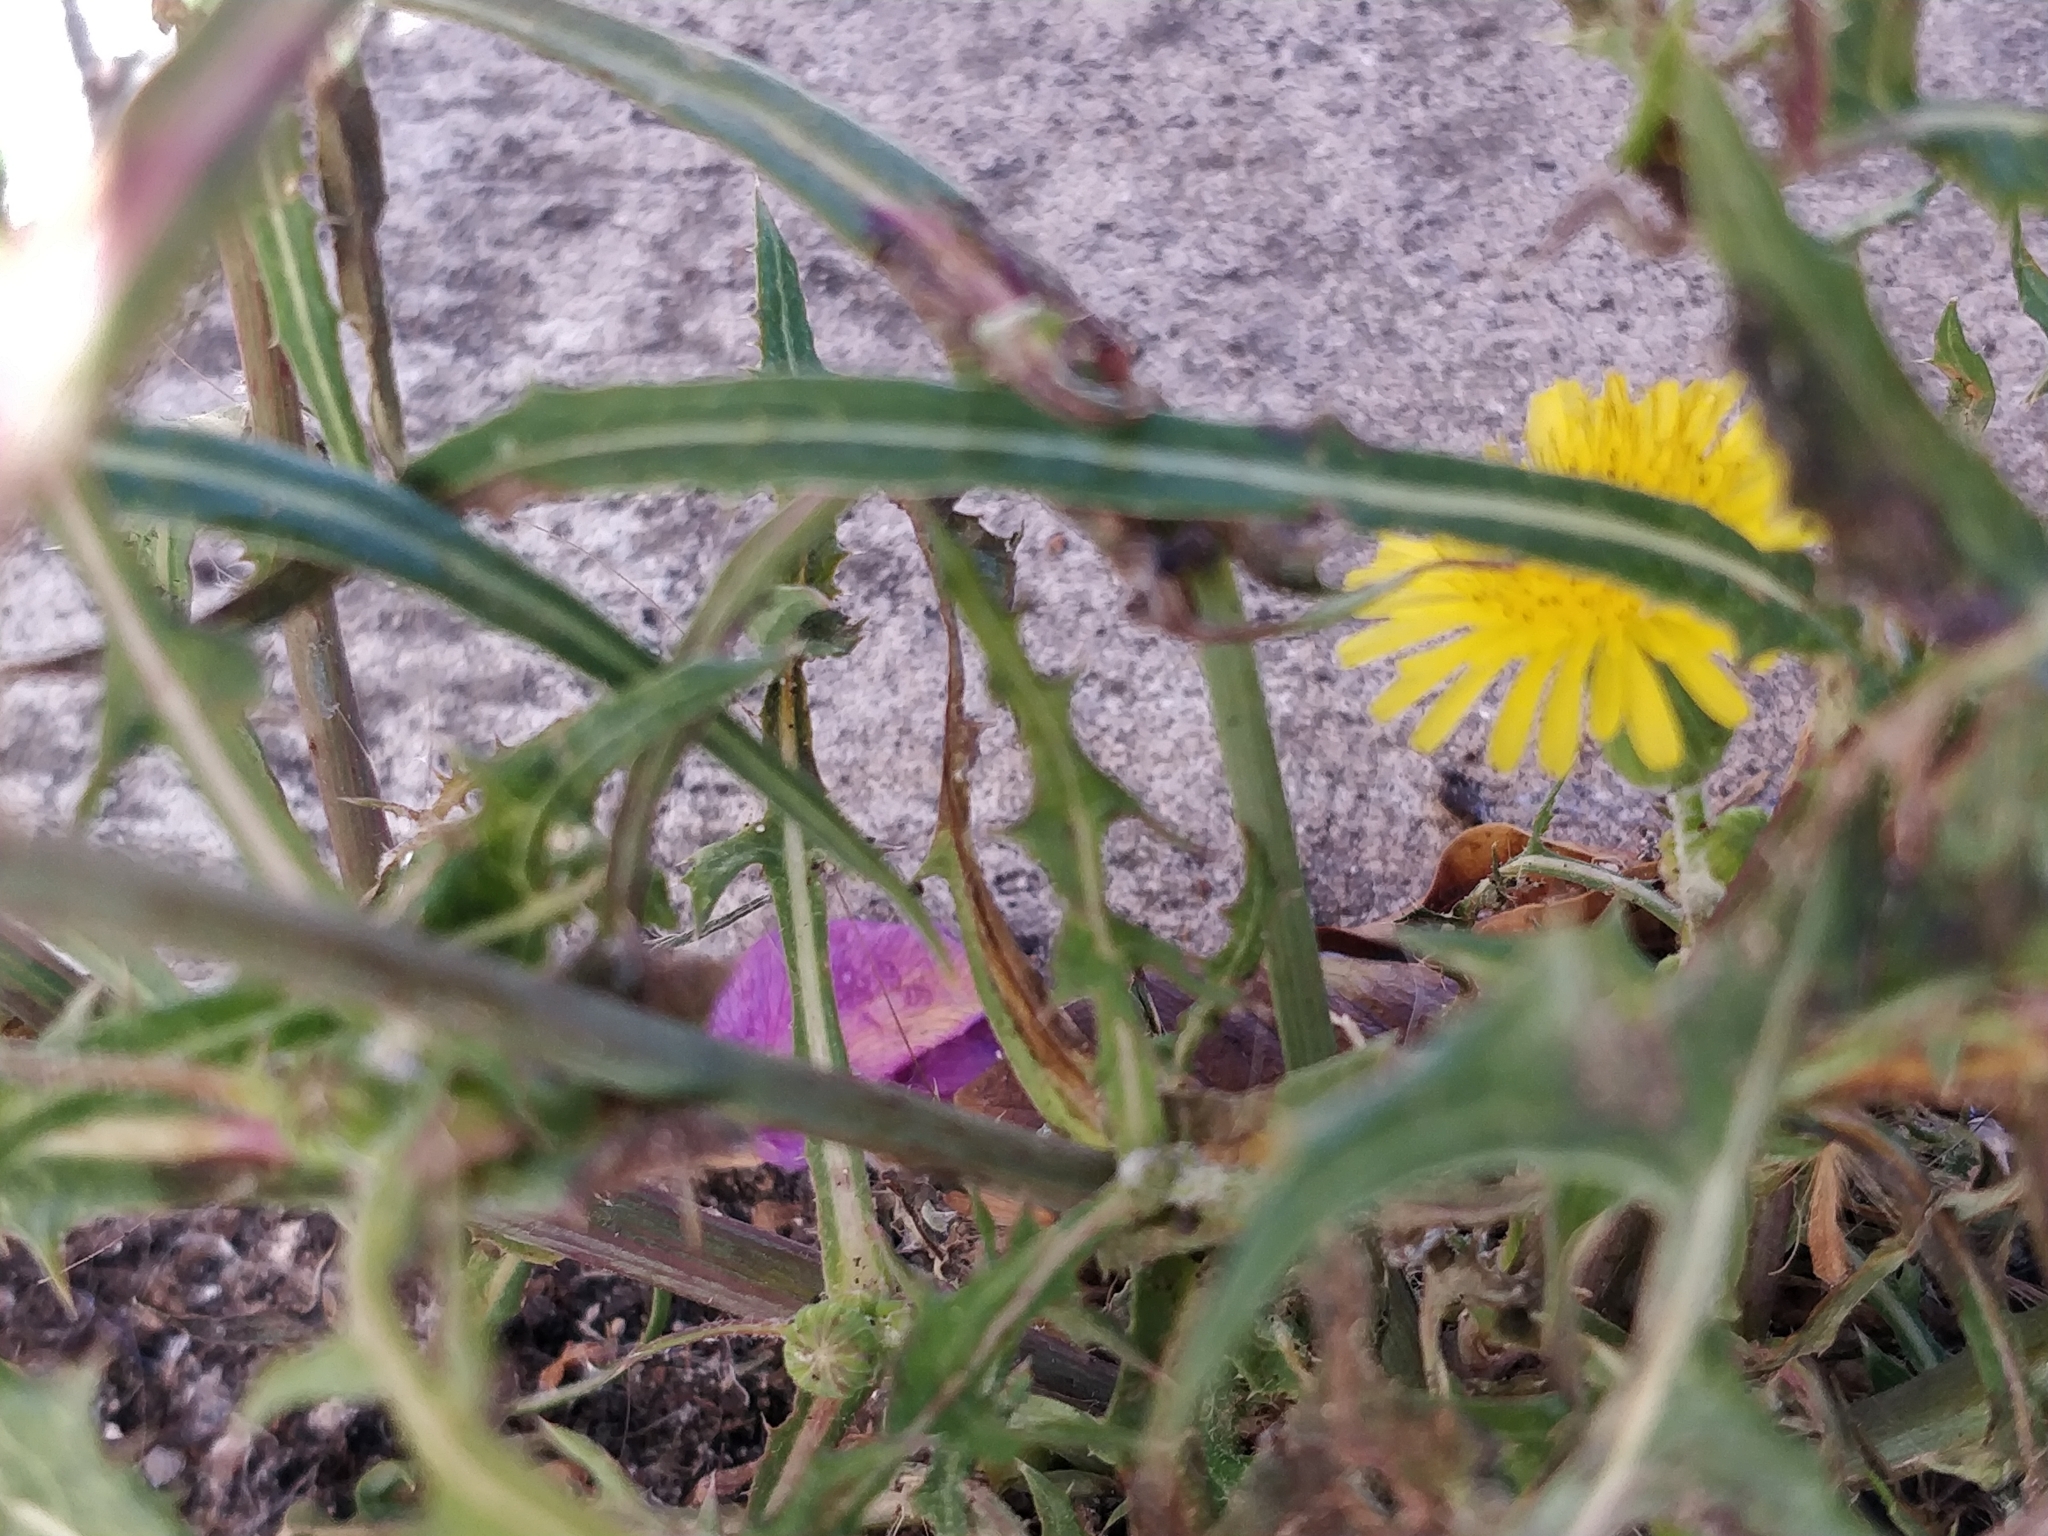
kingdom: Plantae
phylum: Tracheophyta
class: Magnoliopsida
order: Asterales
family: Asteraceae
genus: Sonchus
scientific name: Sonchus asper
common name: Prickly sow-thistle
